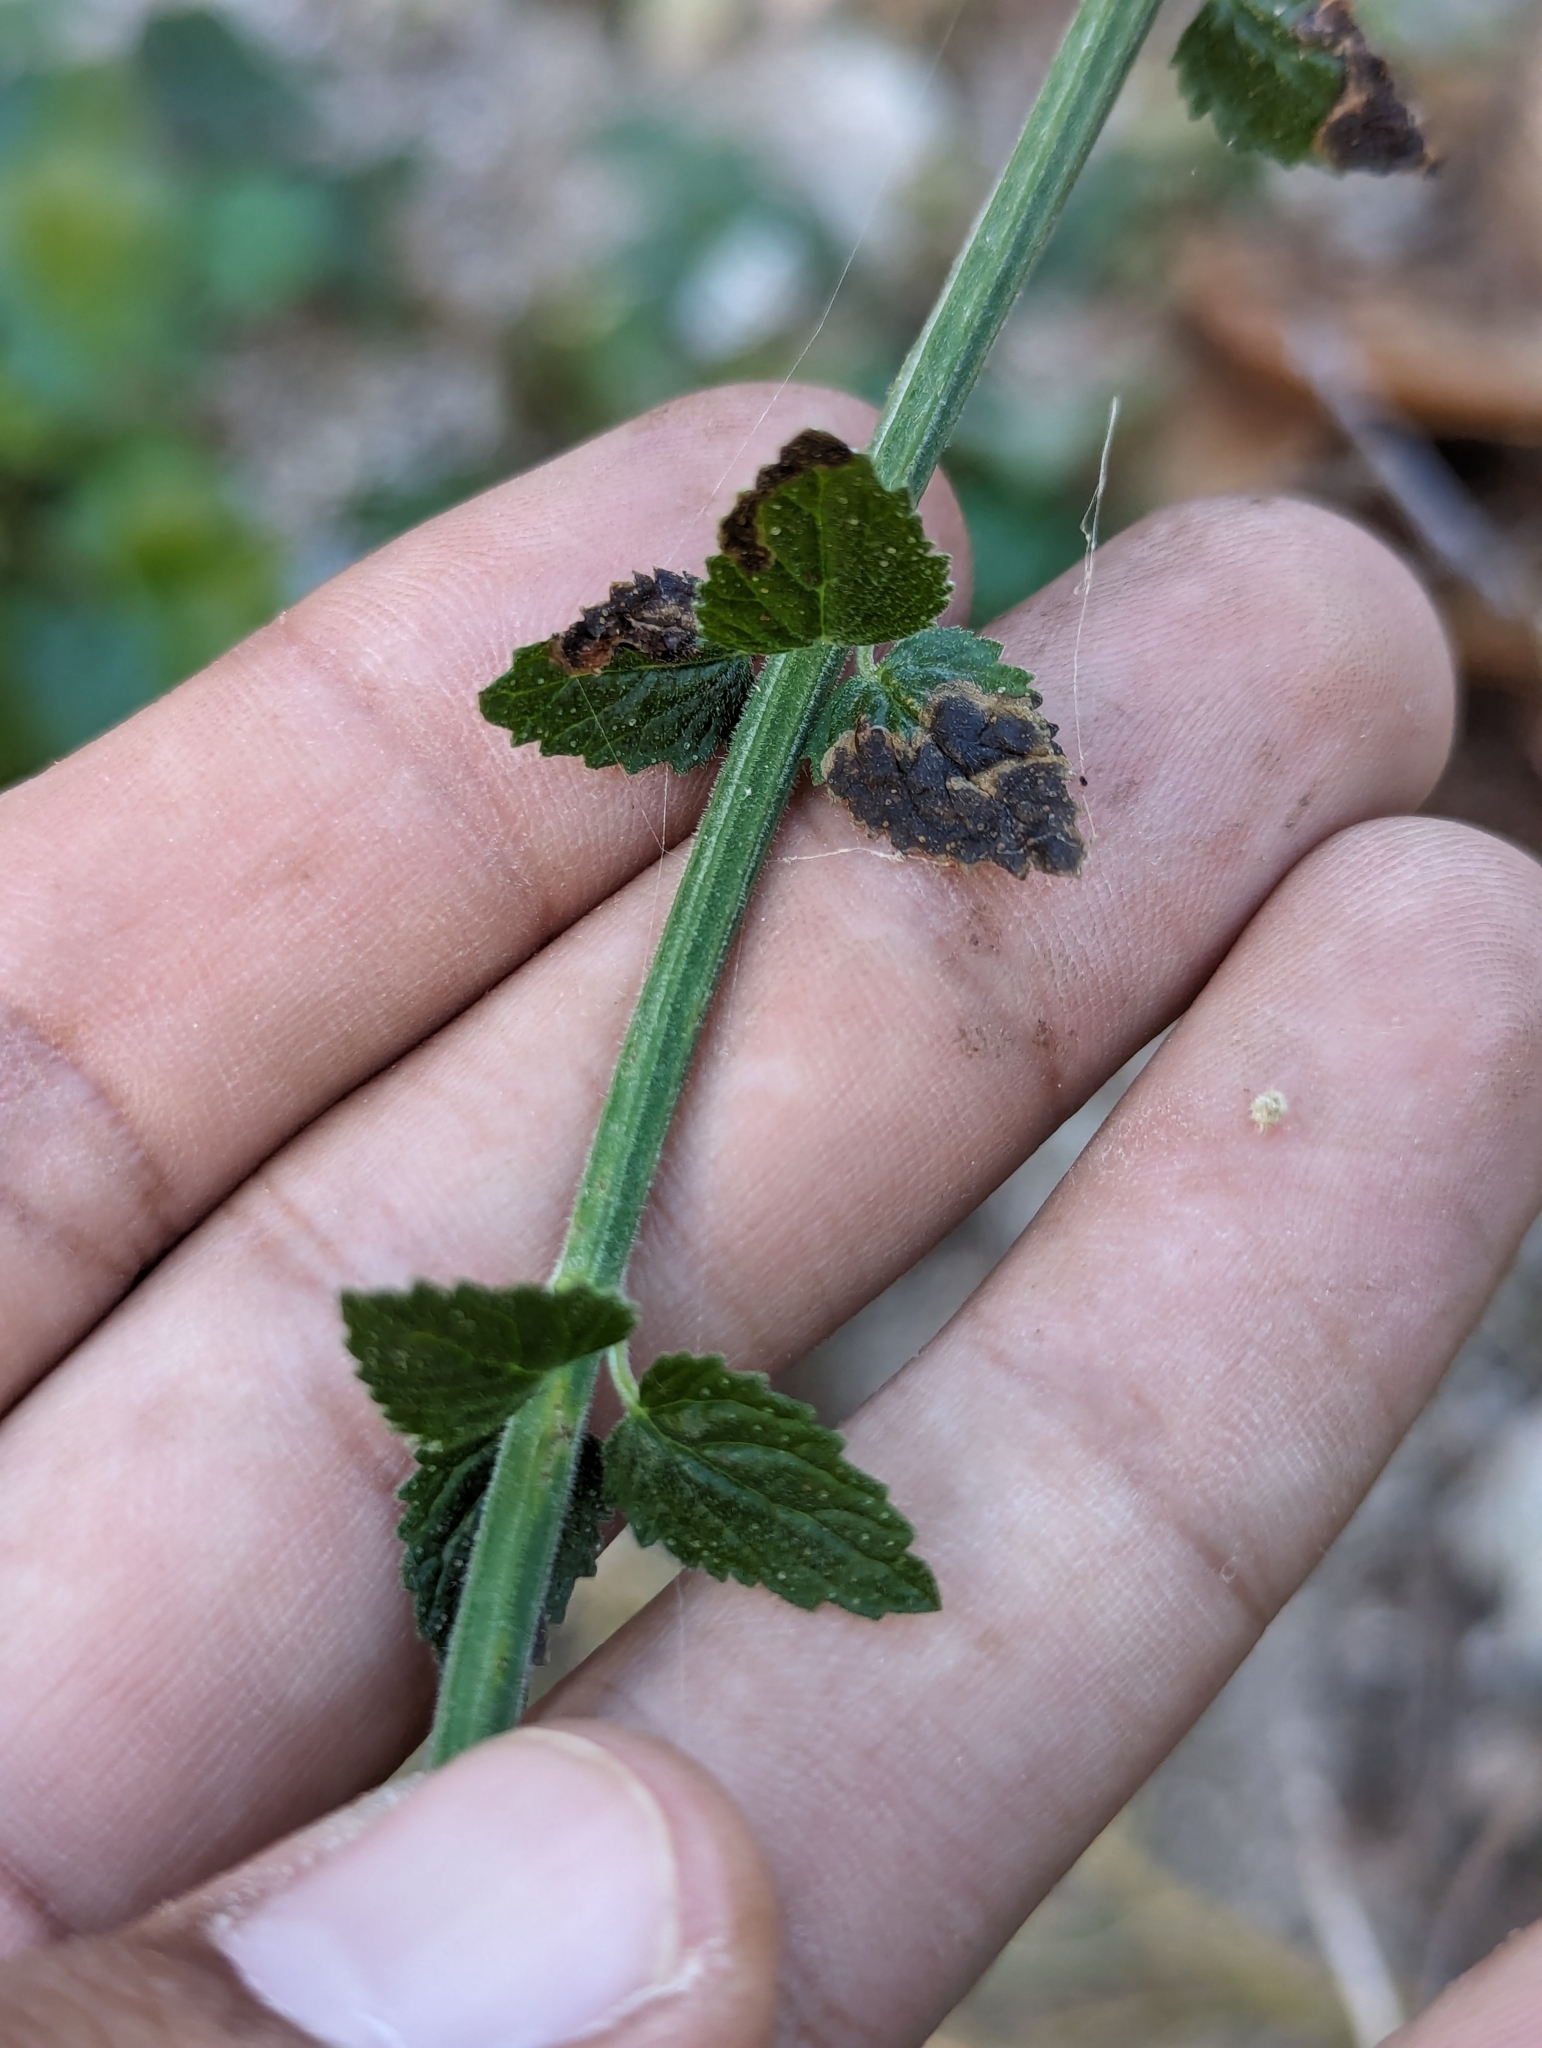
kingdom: Plantae
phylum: Tracheophyta
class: Magnoliopsida
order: Lamiales
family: Plantaginaceae
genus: Russelia
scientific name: Russelia retrorsa
